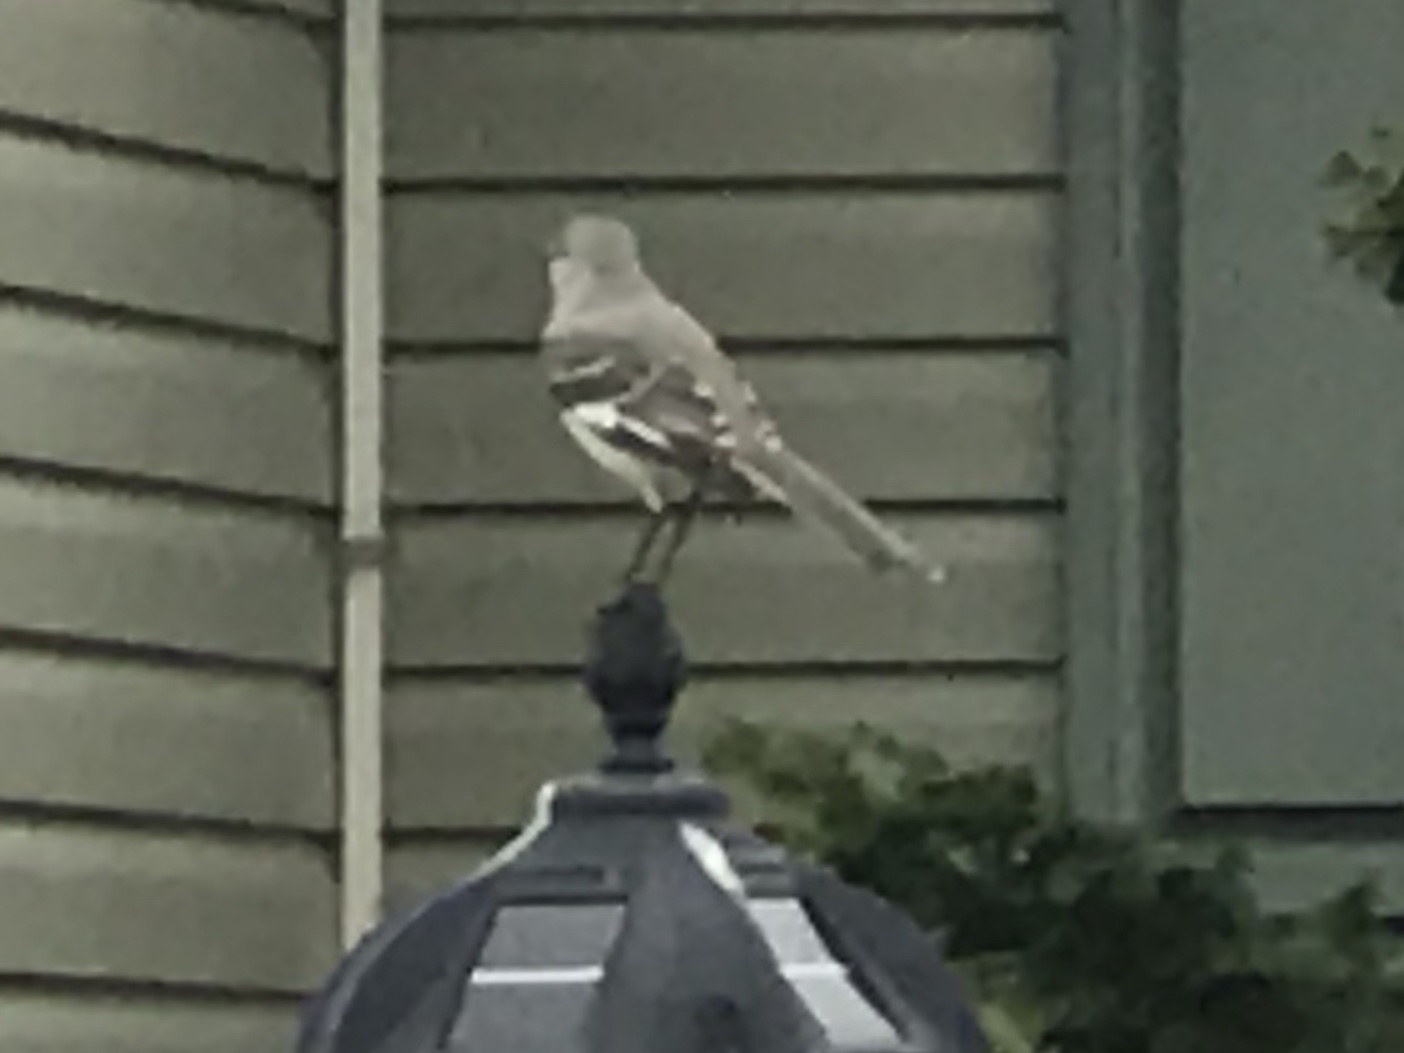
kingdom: Animalia
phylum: Chordata
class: Aves
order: Passeriformes
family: Mimidae
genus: Mimus
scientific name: Mimus polyglottos
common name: Northern mockingbird
